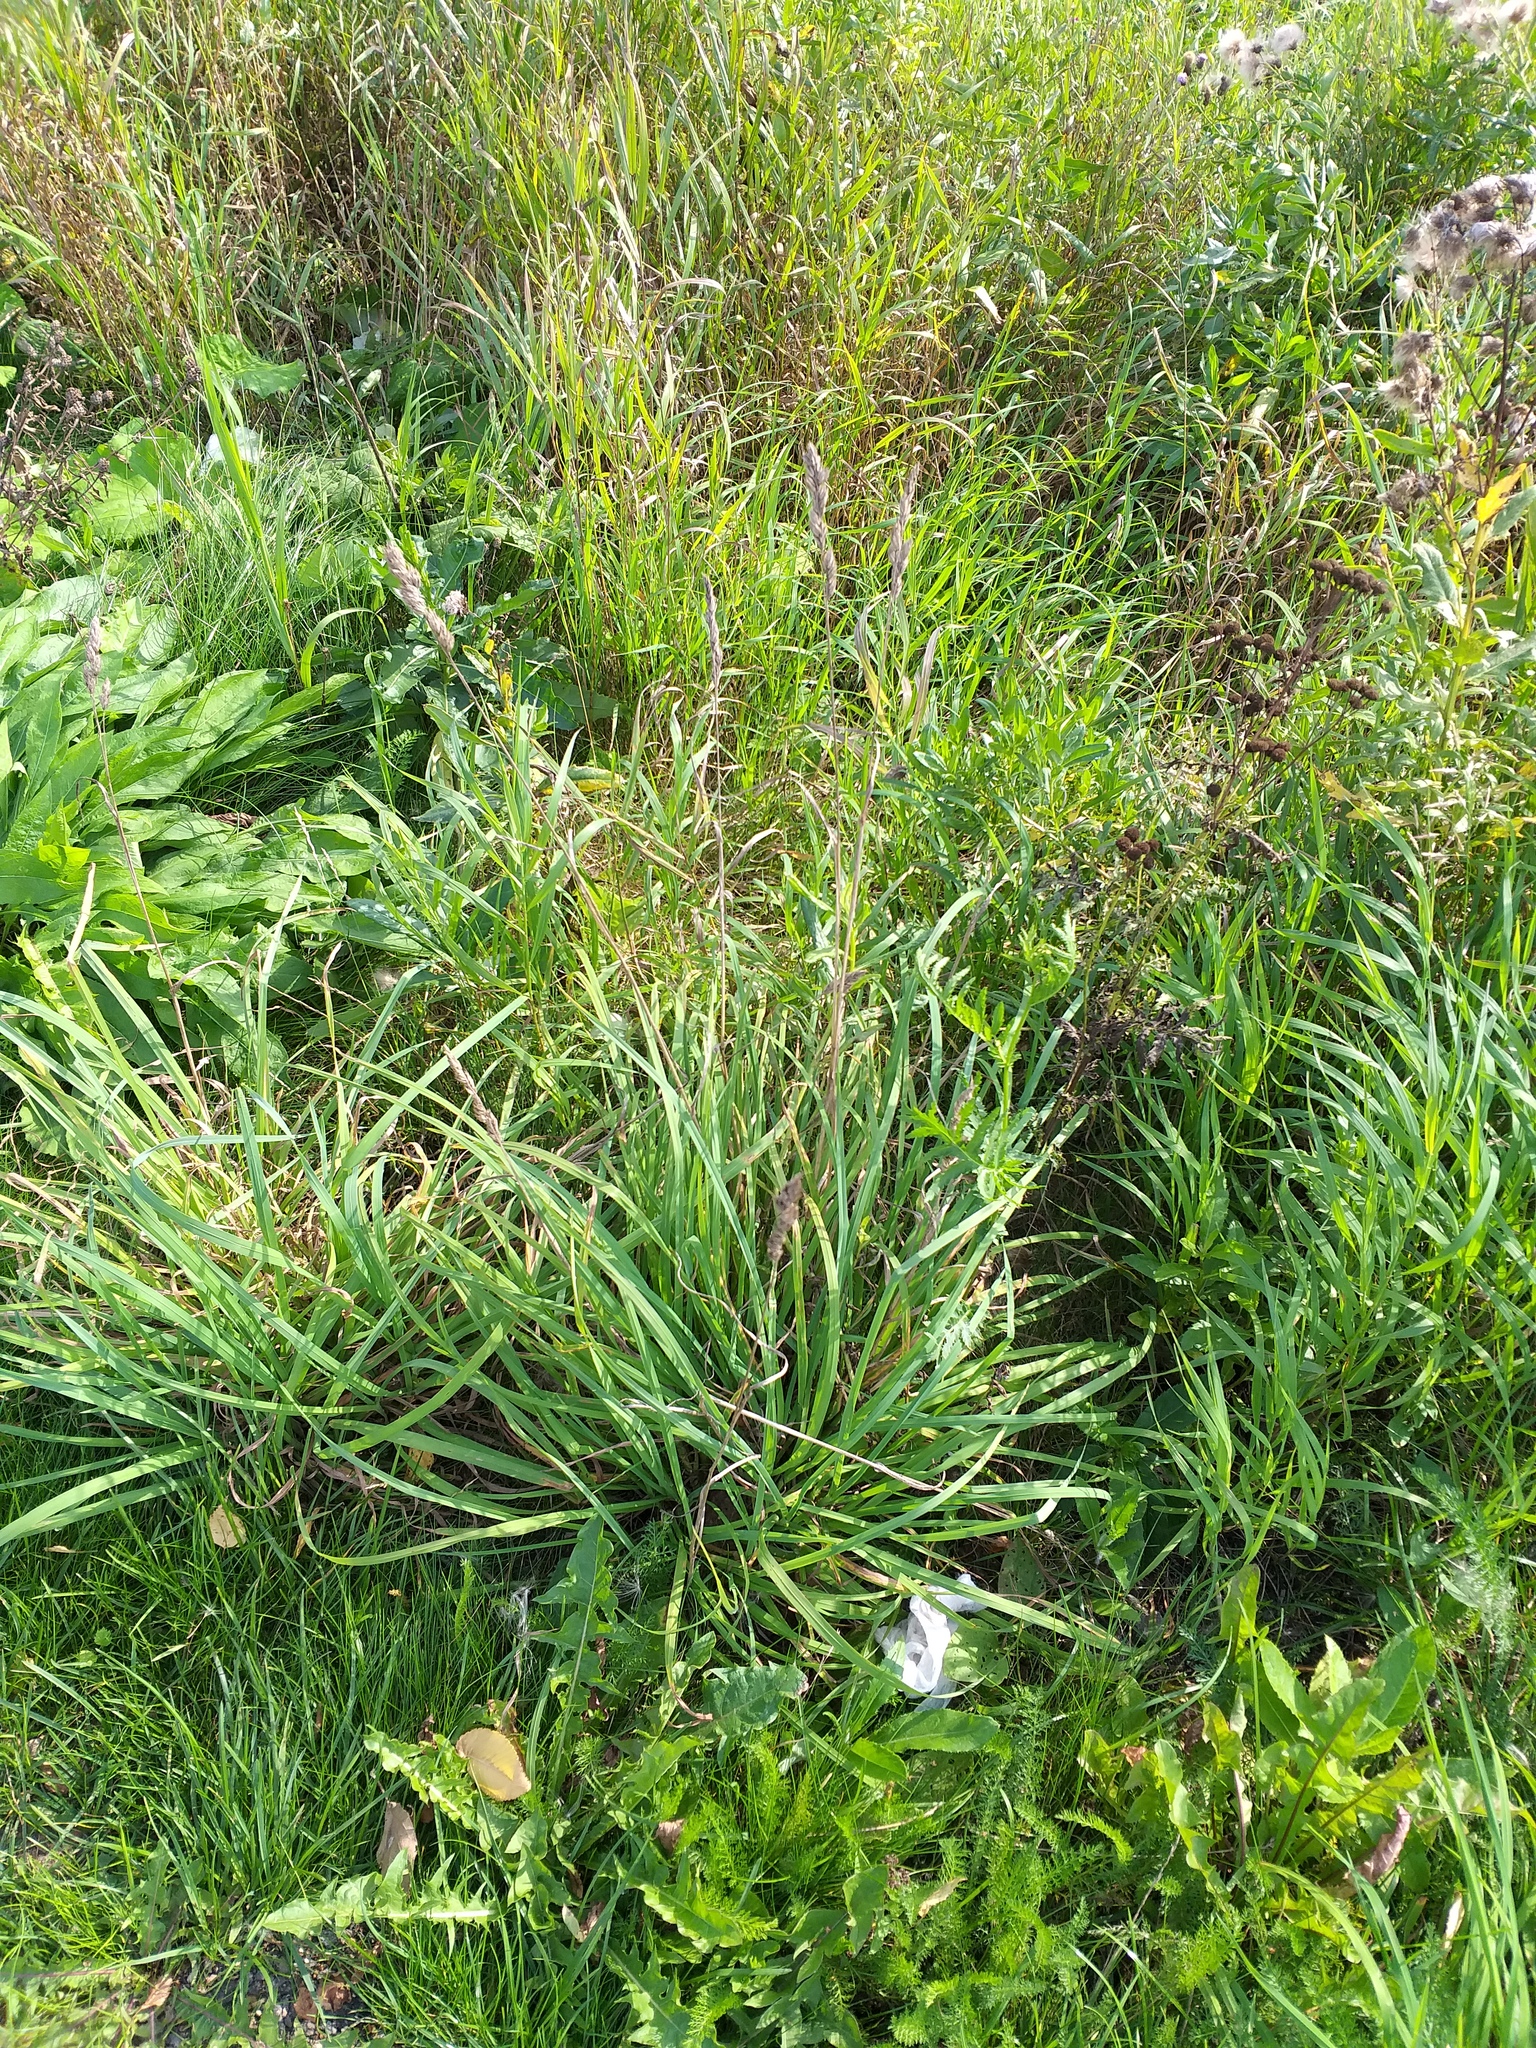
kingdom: Plantae
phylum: Tracheophyta
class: Liliopsida
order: Poales
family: Poaceae
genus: Dactylis
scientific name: Dactylis glomerata
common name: Orchardgrass
